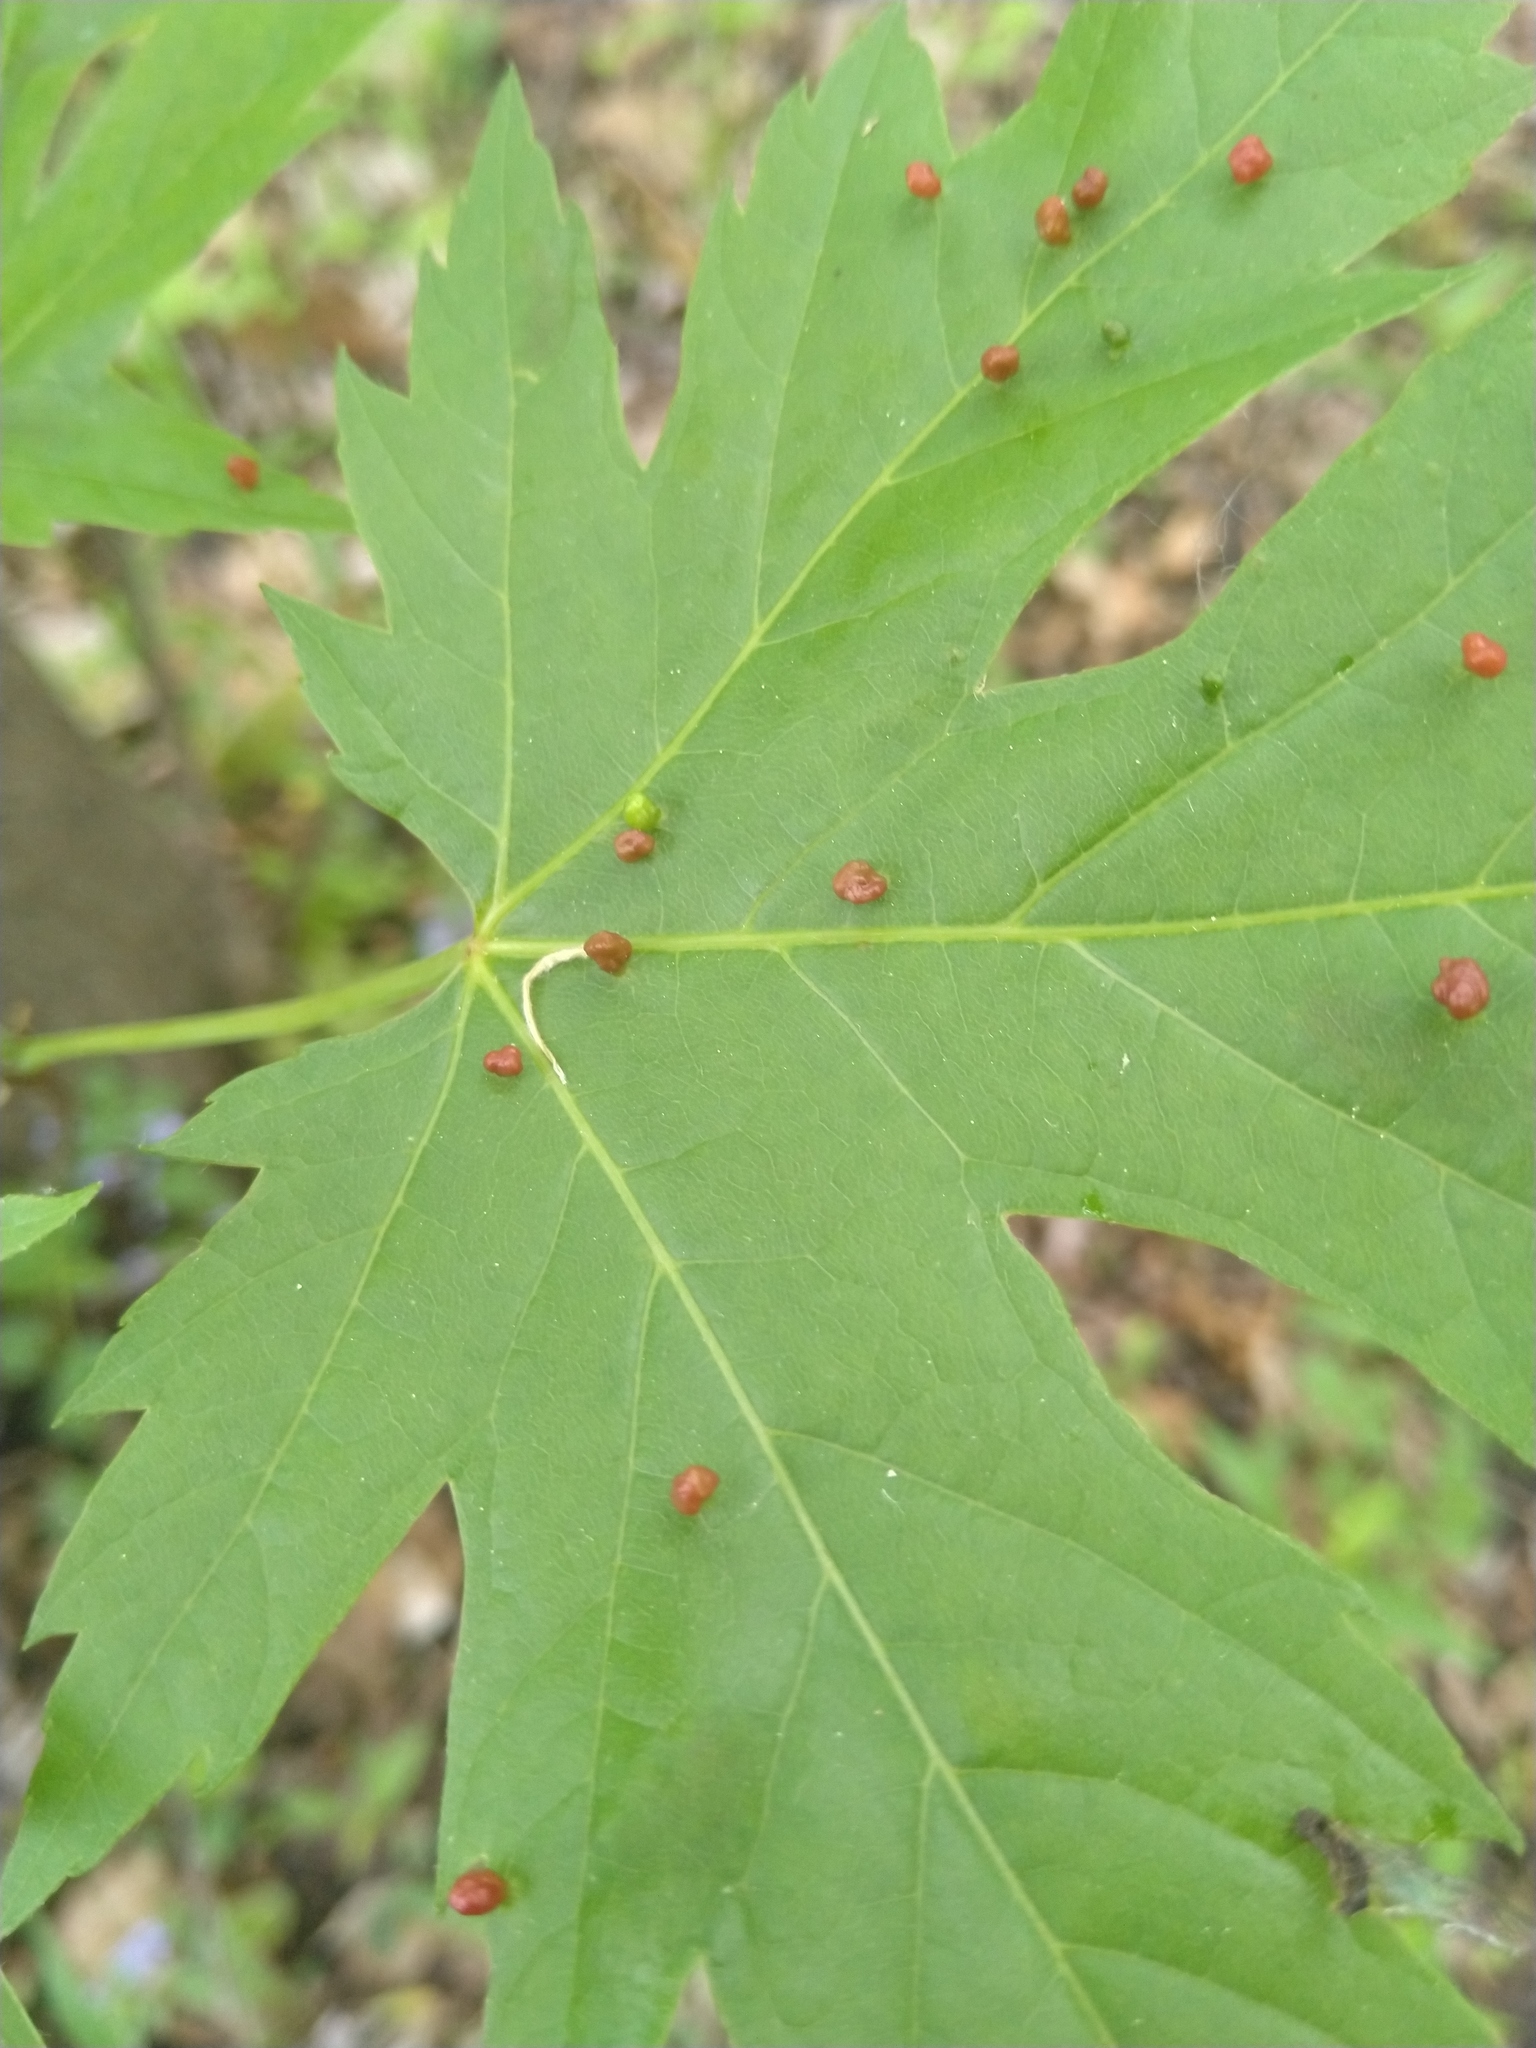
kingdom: Animalia
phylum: Arthropoda
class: Arachnida
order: Trombidiformes
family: Eriophyidae
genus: Vasates
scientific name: Vasates quadripedes
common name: Maple bladder gall mite
